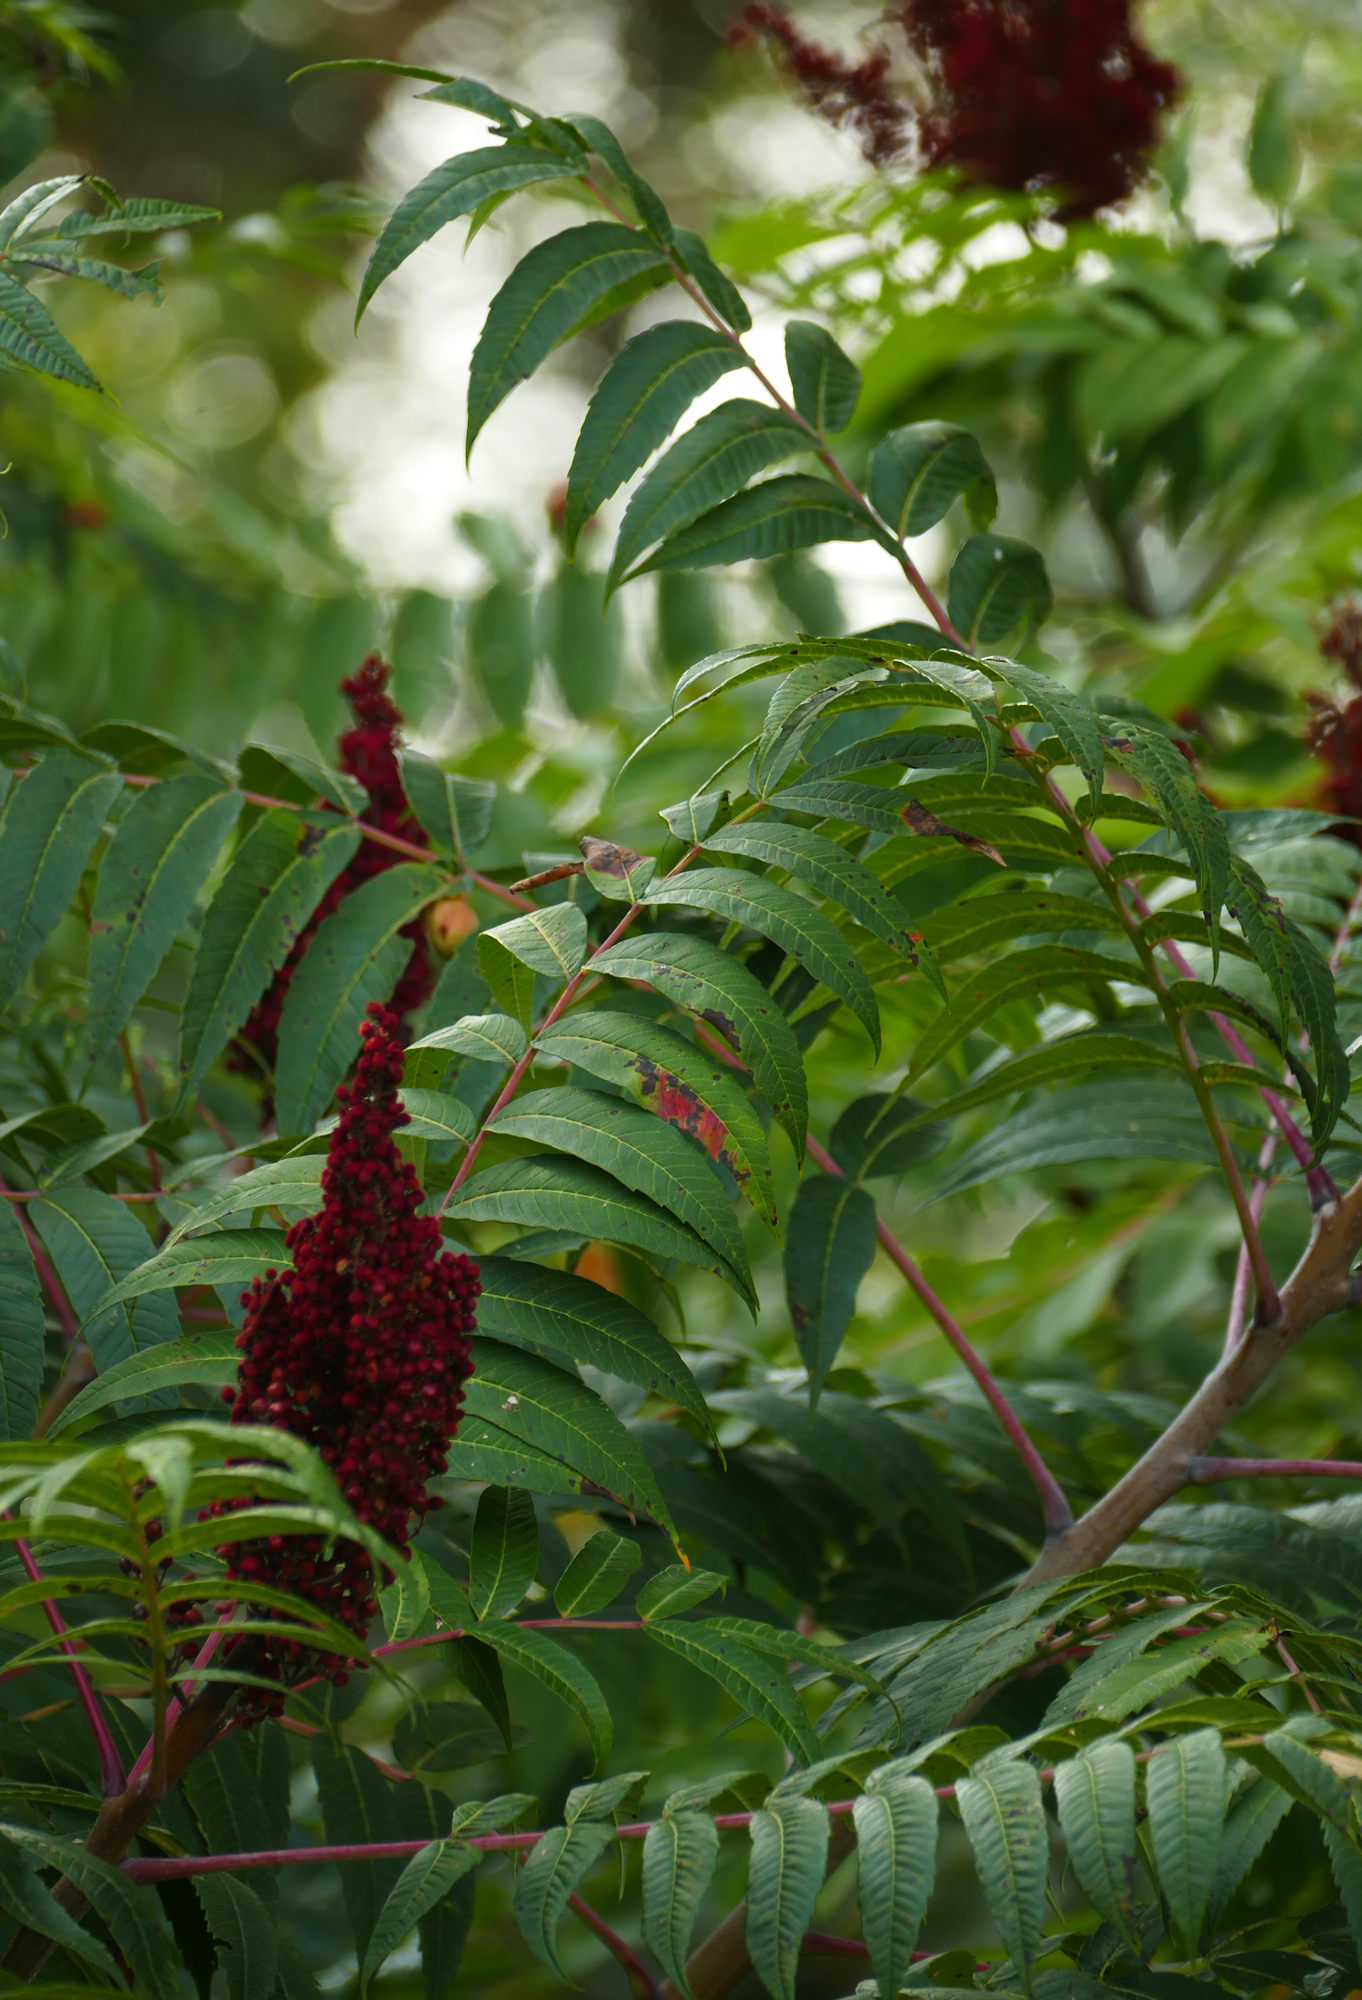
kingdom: Plantae
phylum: Tracheophyta
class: Magnoliopsida
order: Sapindales
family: Anacardiaceae
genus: Rhus
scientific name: Rhus glabra
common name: Scarlet sumac
